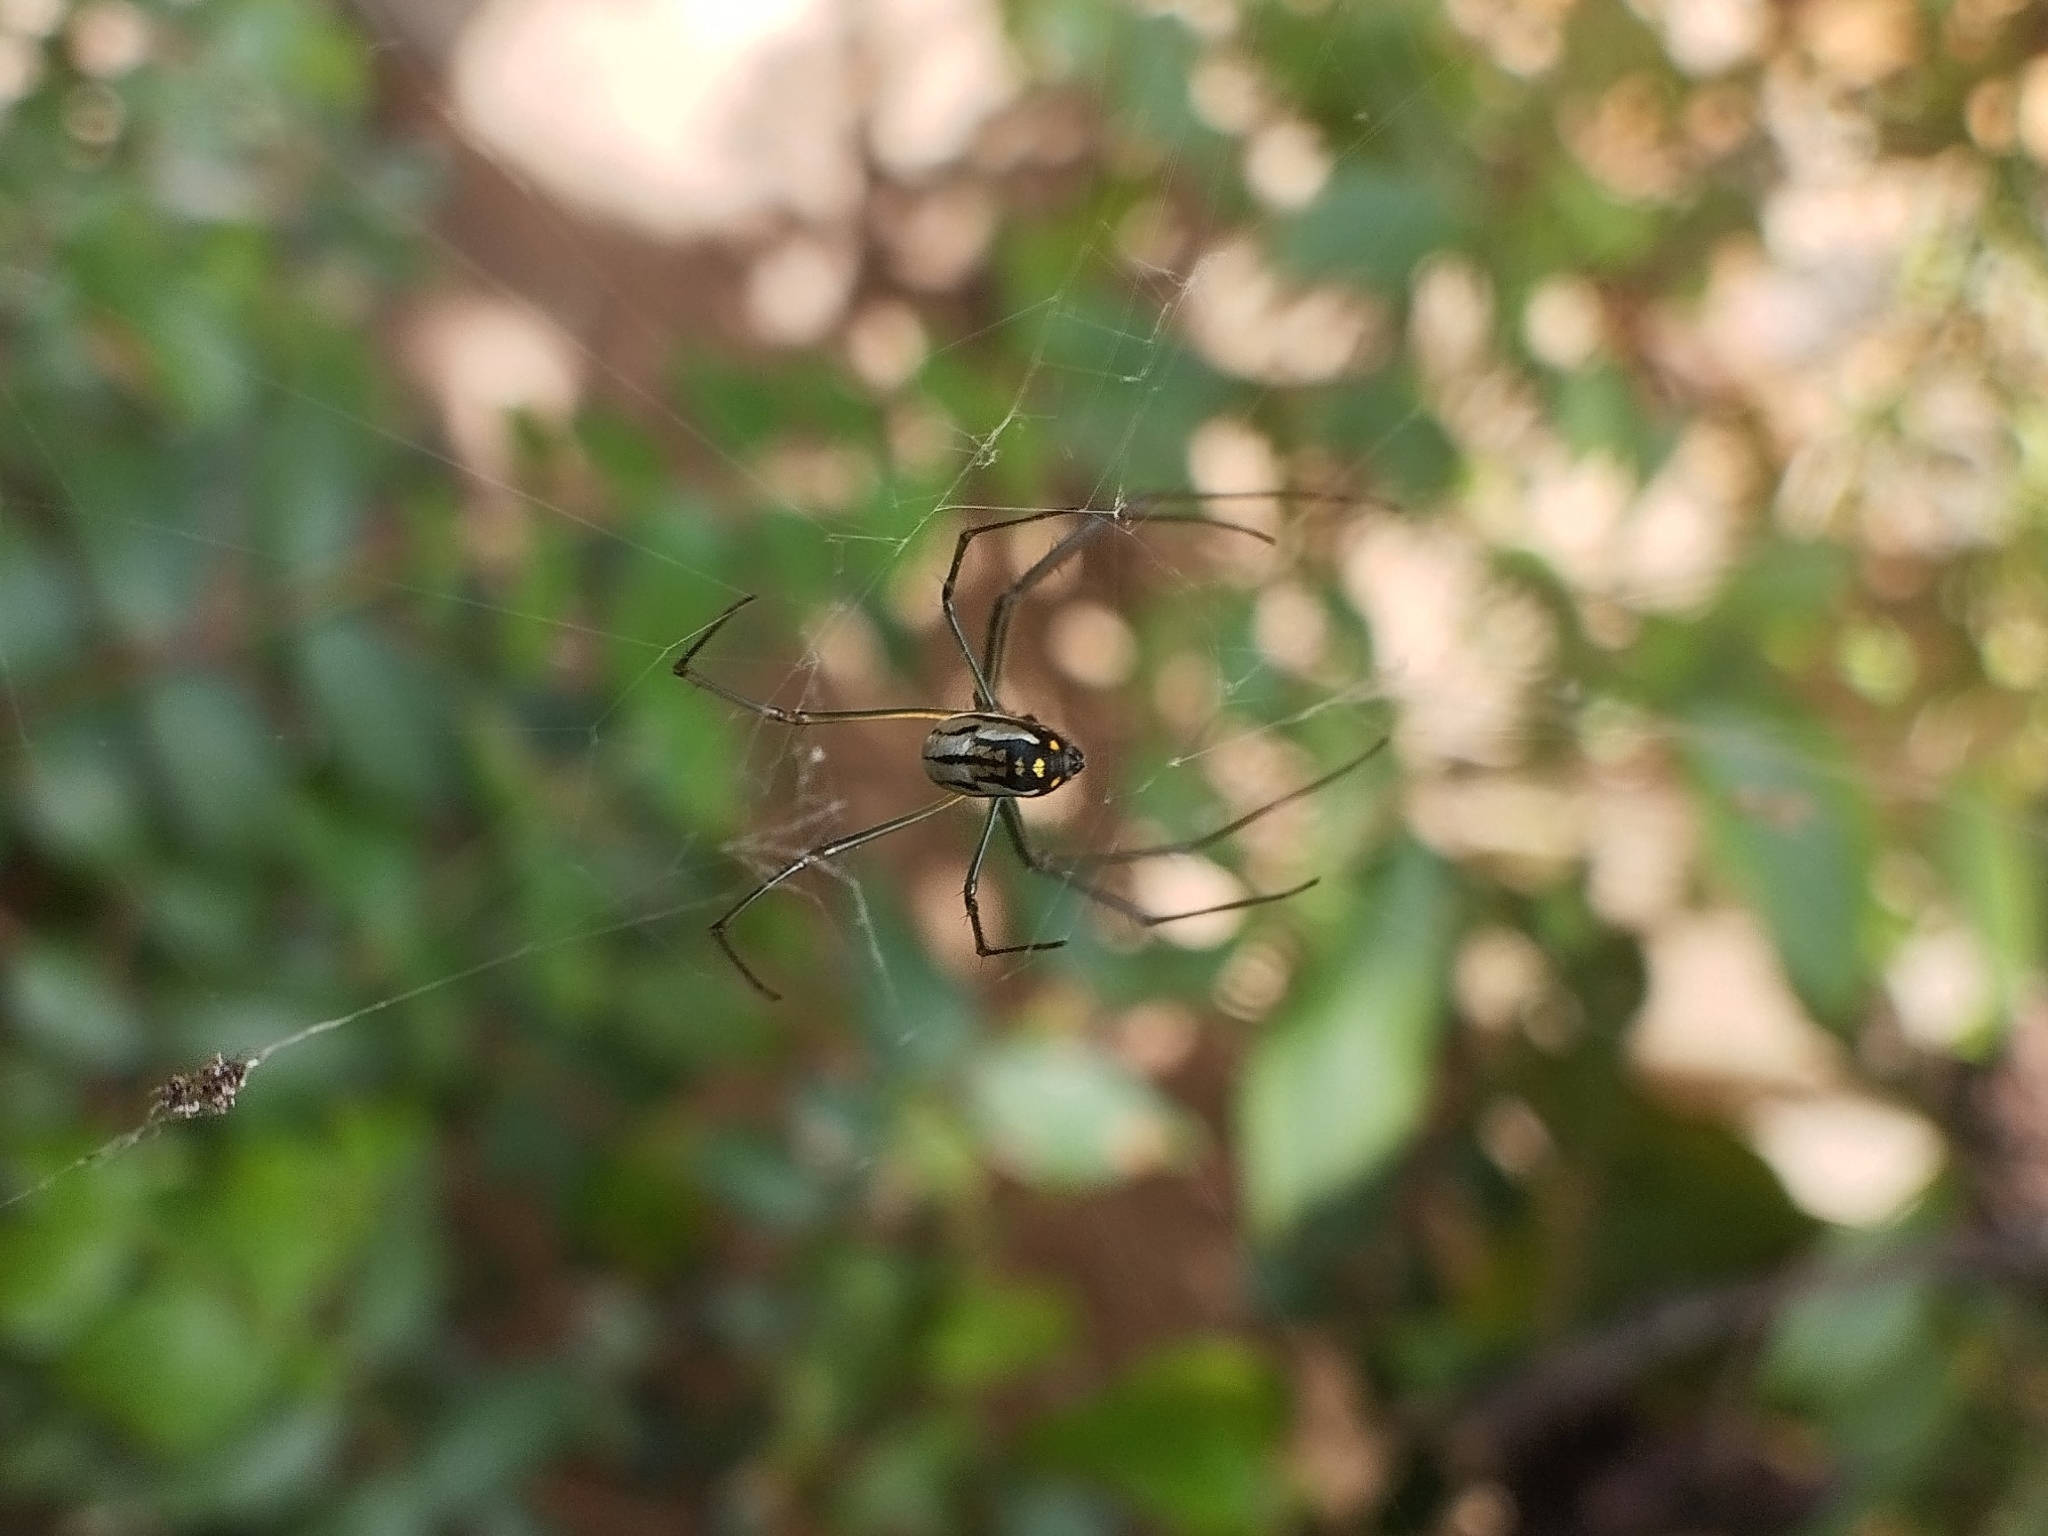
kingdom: Animalia
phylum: Arthropoda
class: Arachnida
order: Araneae
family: Tetragnathidae
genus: Leucauge
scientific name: Leucauge volupis
